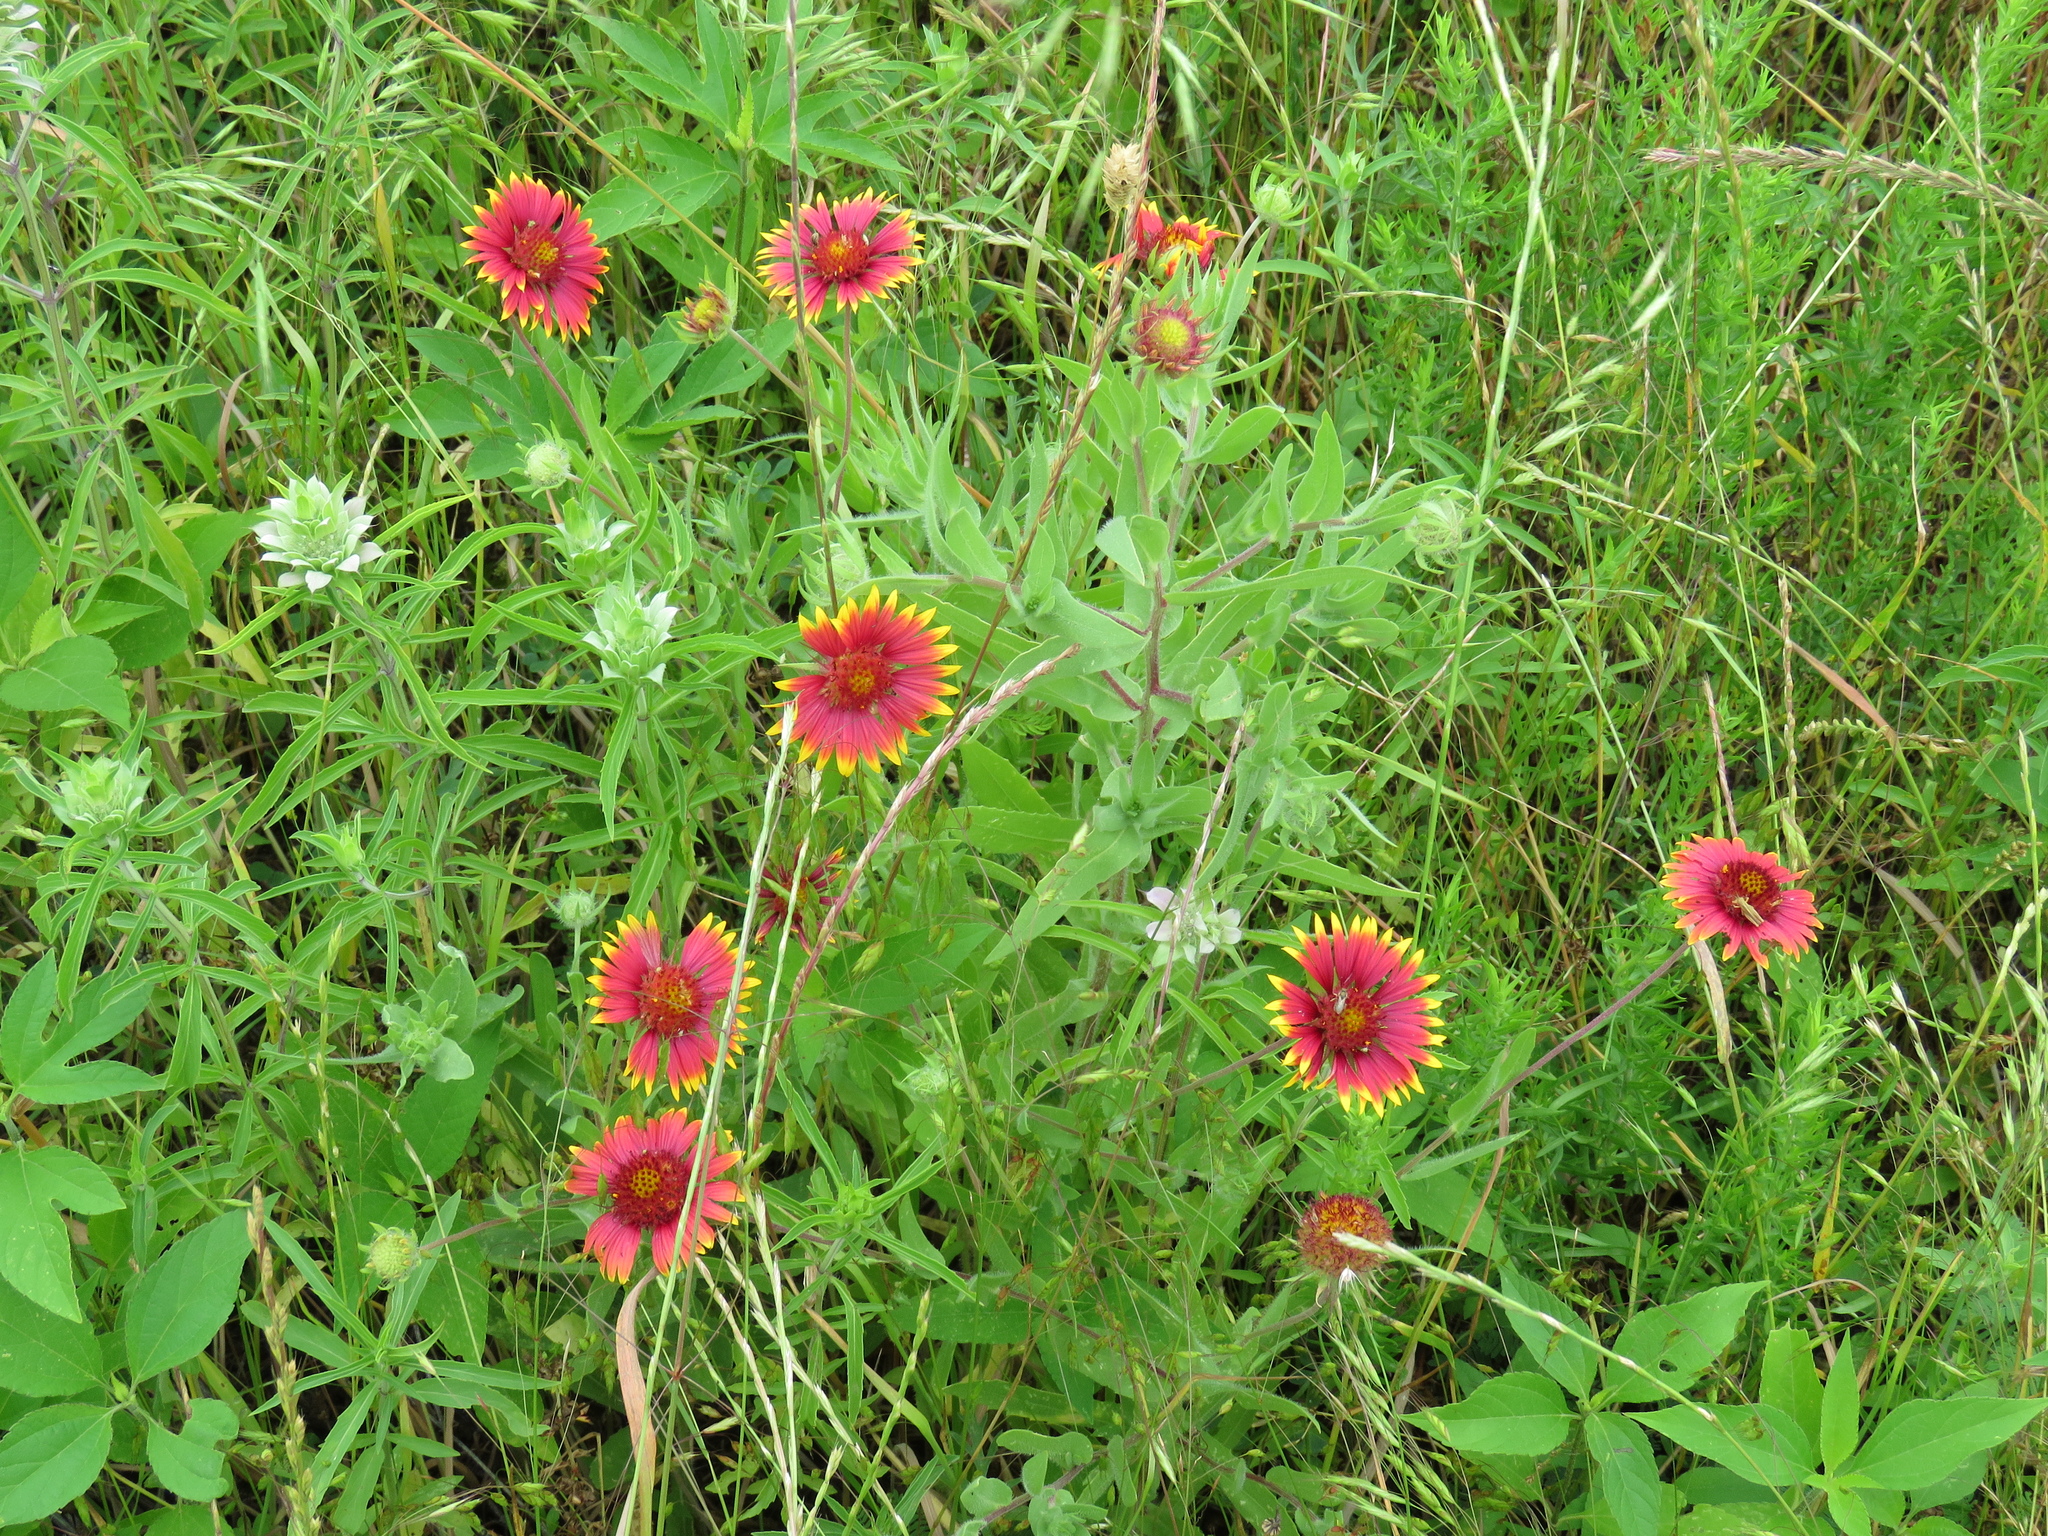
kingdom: Plantae
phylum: Tracheophyta
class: Magnoliopsida
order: Asterales
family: Asteraceae
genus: Gaillardia
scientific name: Gaillardia pulchella
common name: Firewheel
